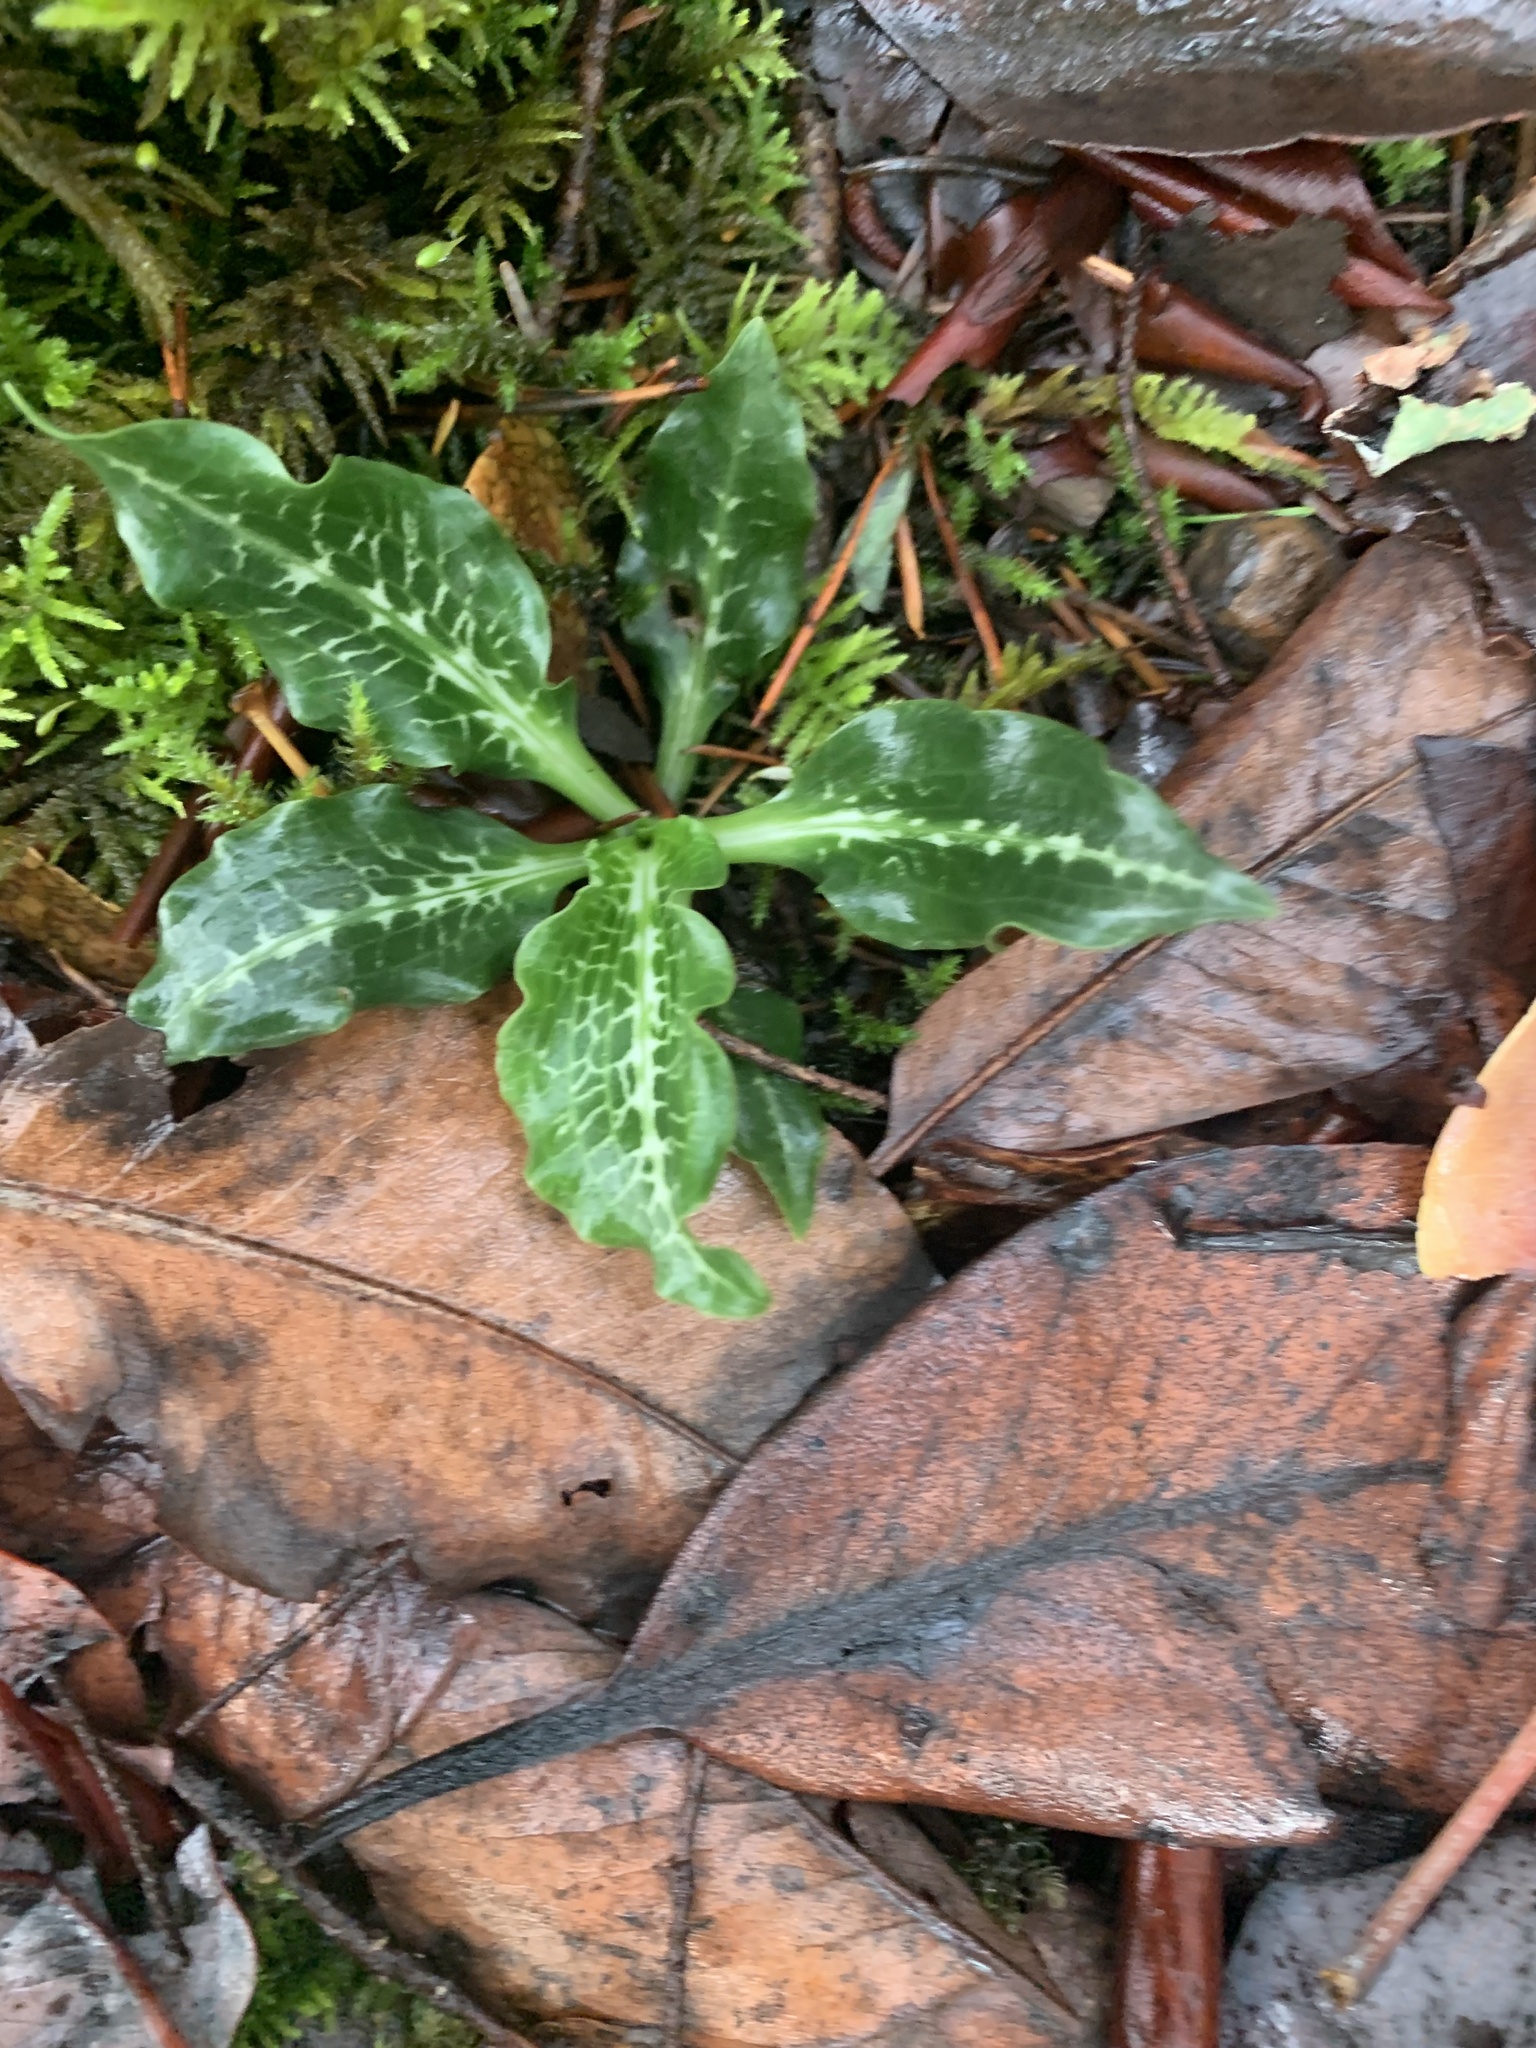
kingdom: Plantae
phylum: Tracheophyta
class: Liliopsida
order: Asparagales
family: Orchidaceae
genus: Goodyera
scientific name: Goodyera oblongifolia
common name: Giant rattlesnake-plantain
